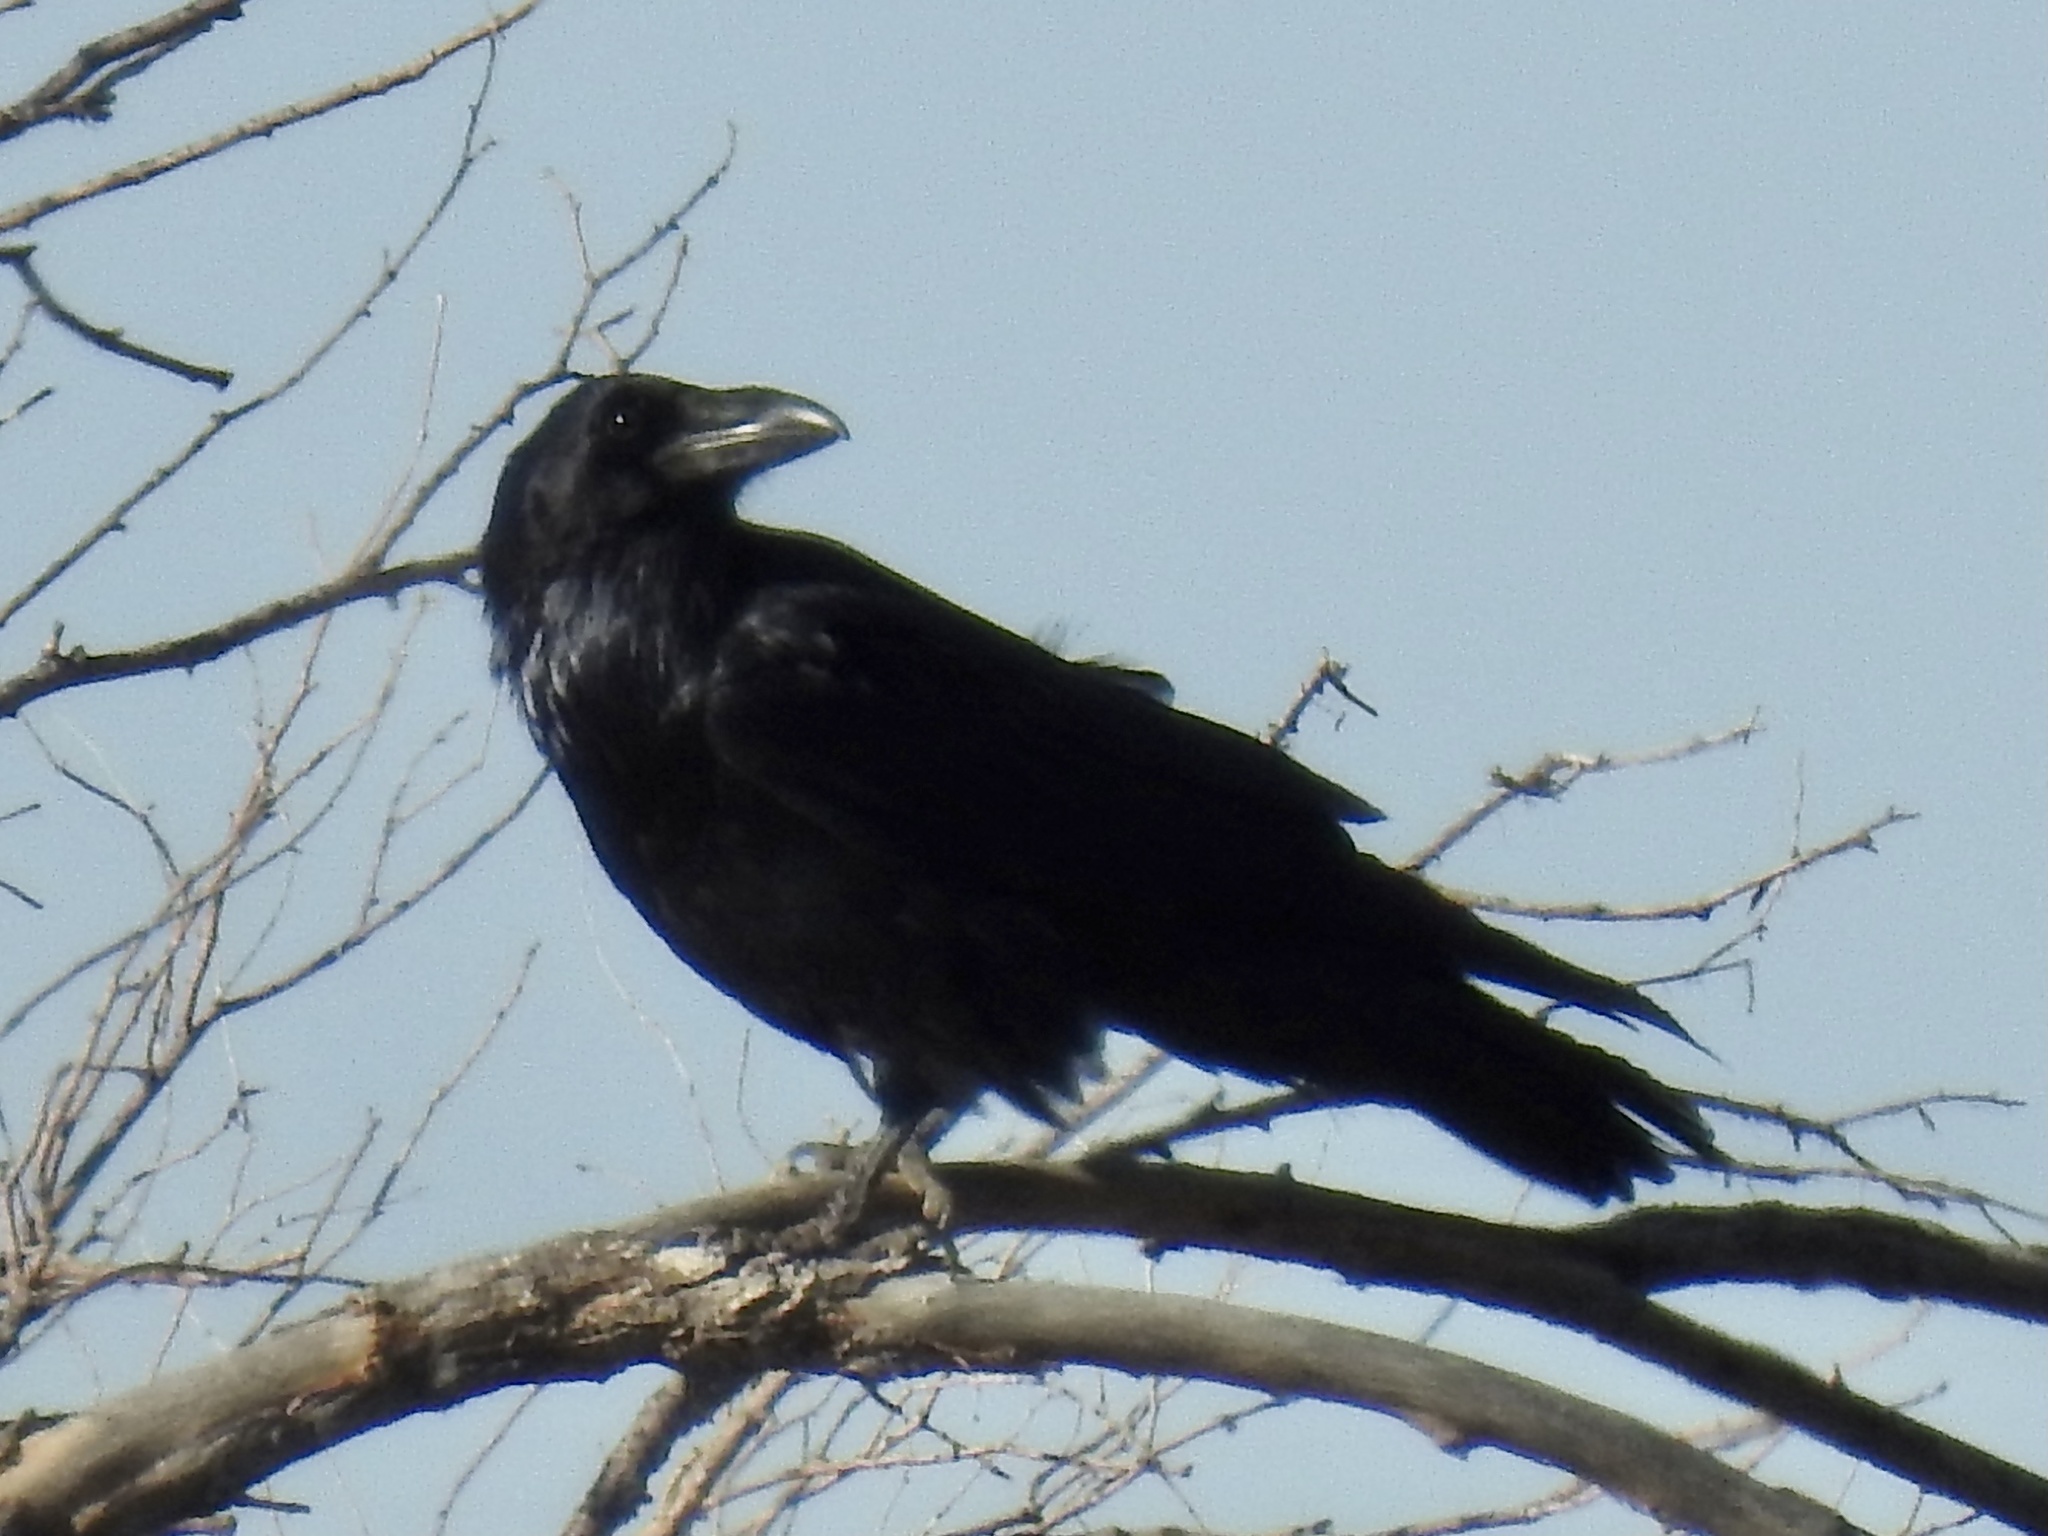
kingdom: Animalia
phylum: Chordata
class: Aves
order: Passeriformes
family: Corvidae
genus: Corvus
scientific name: Corvus corax
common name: Common raven
